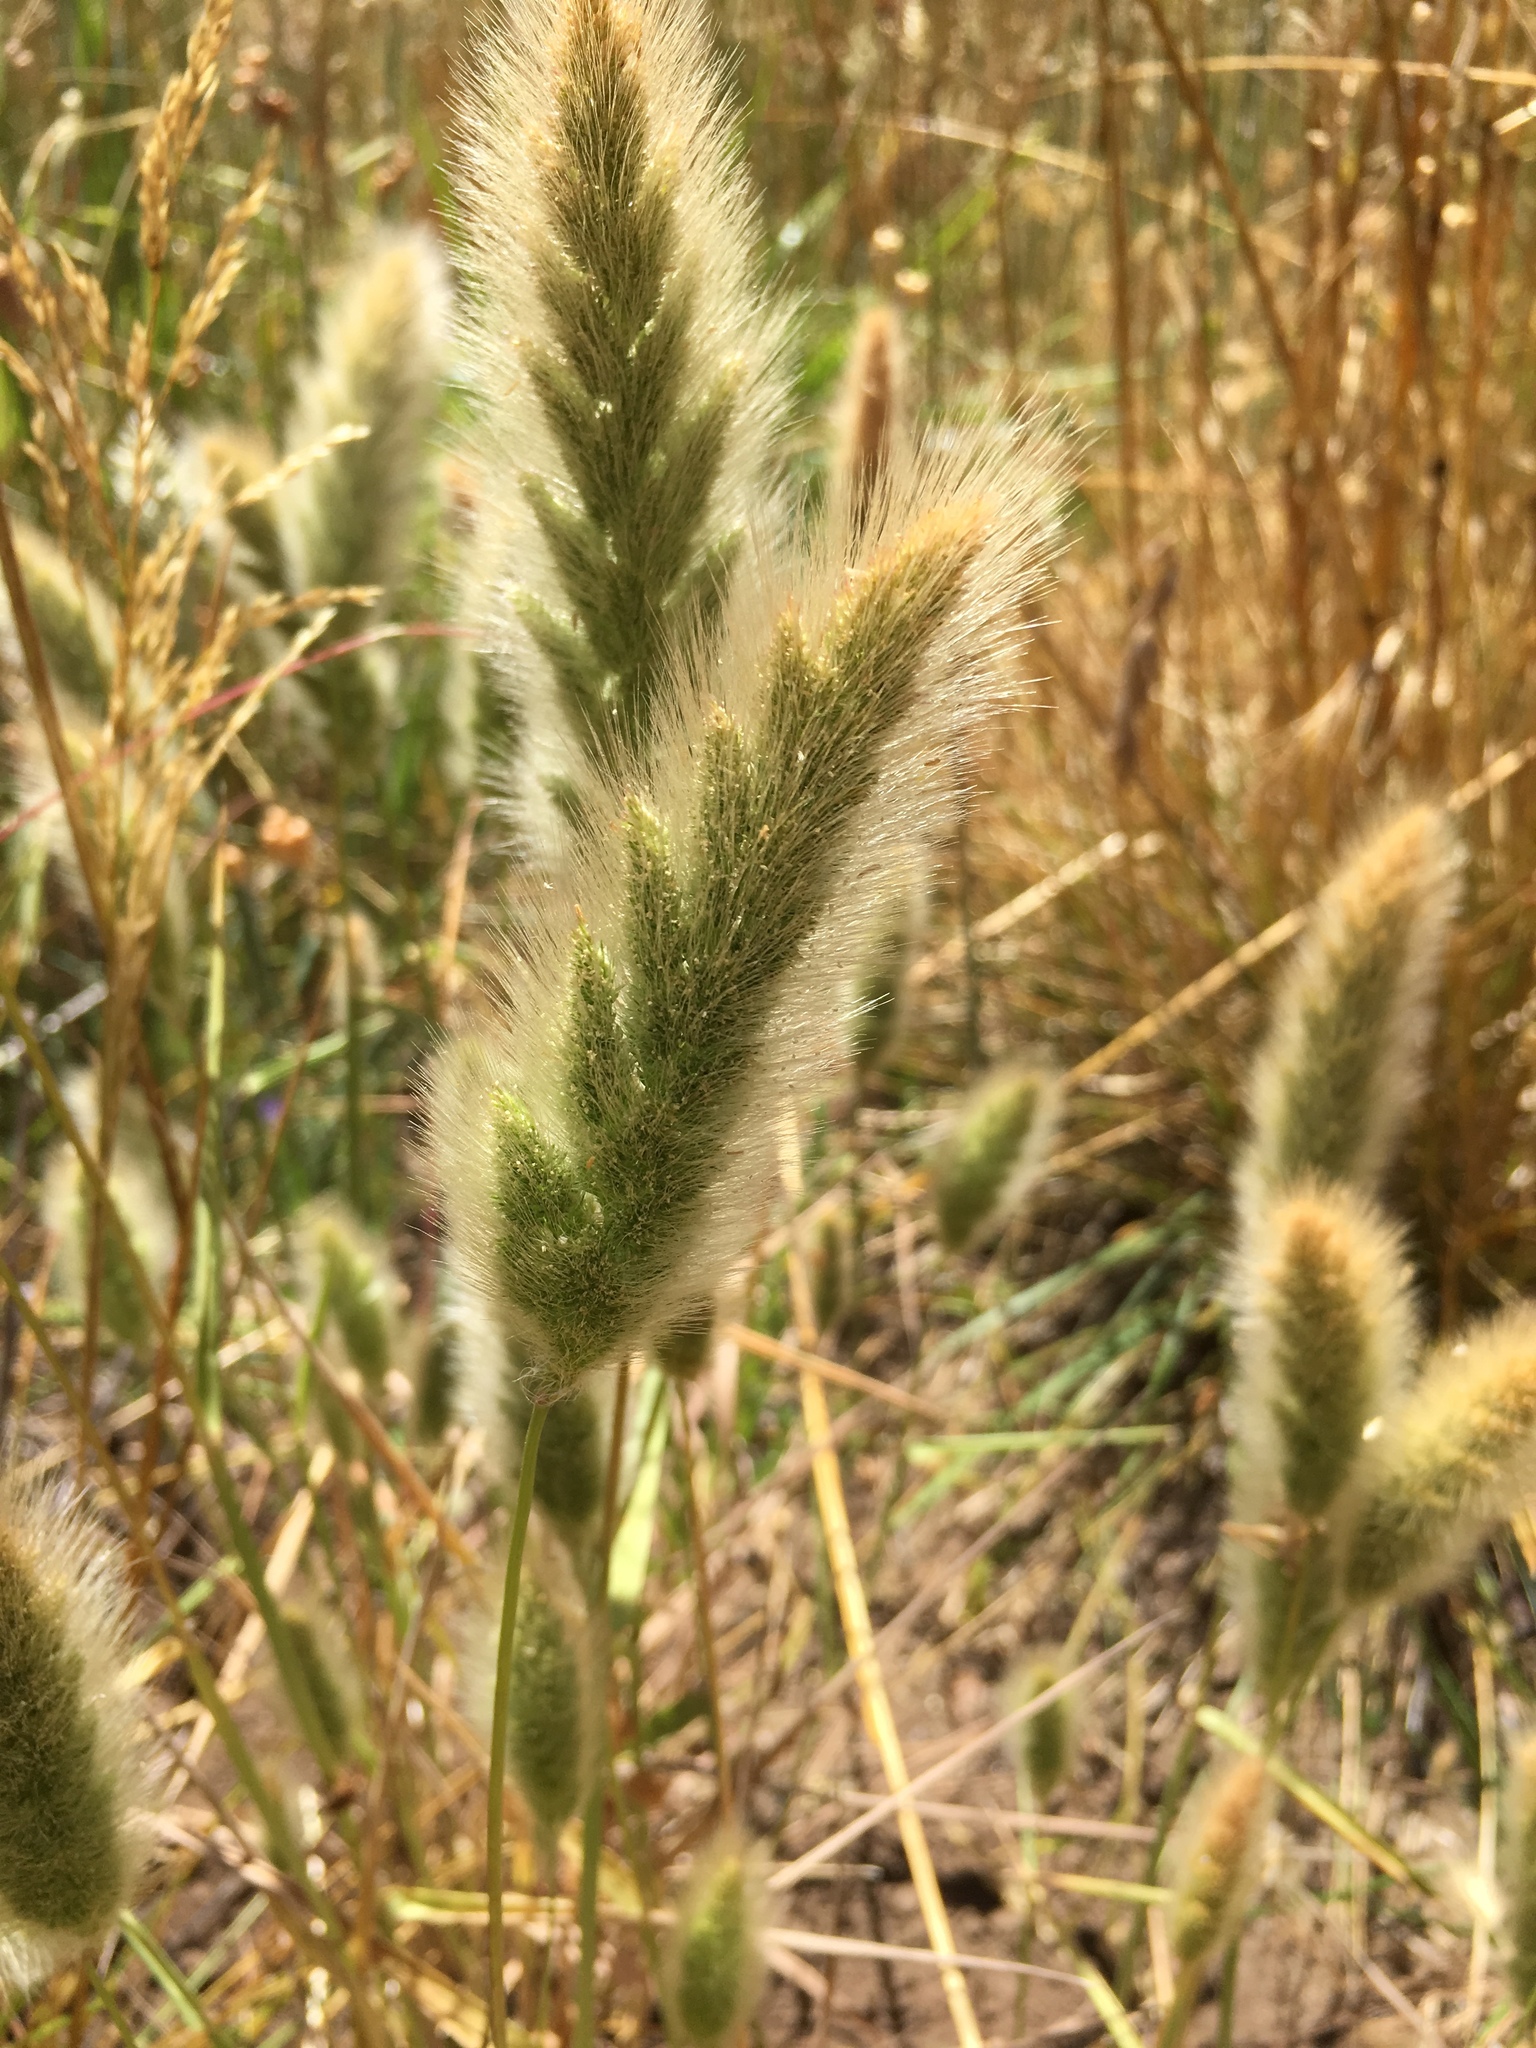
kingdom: Plantae
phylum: Tracheophyta
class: Liliopsida
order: Poales
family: Poaceae
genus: Polypogon
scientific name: Polypogon monspeliensis
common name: Annual rabbitsfoot grass
